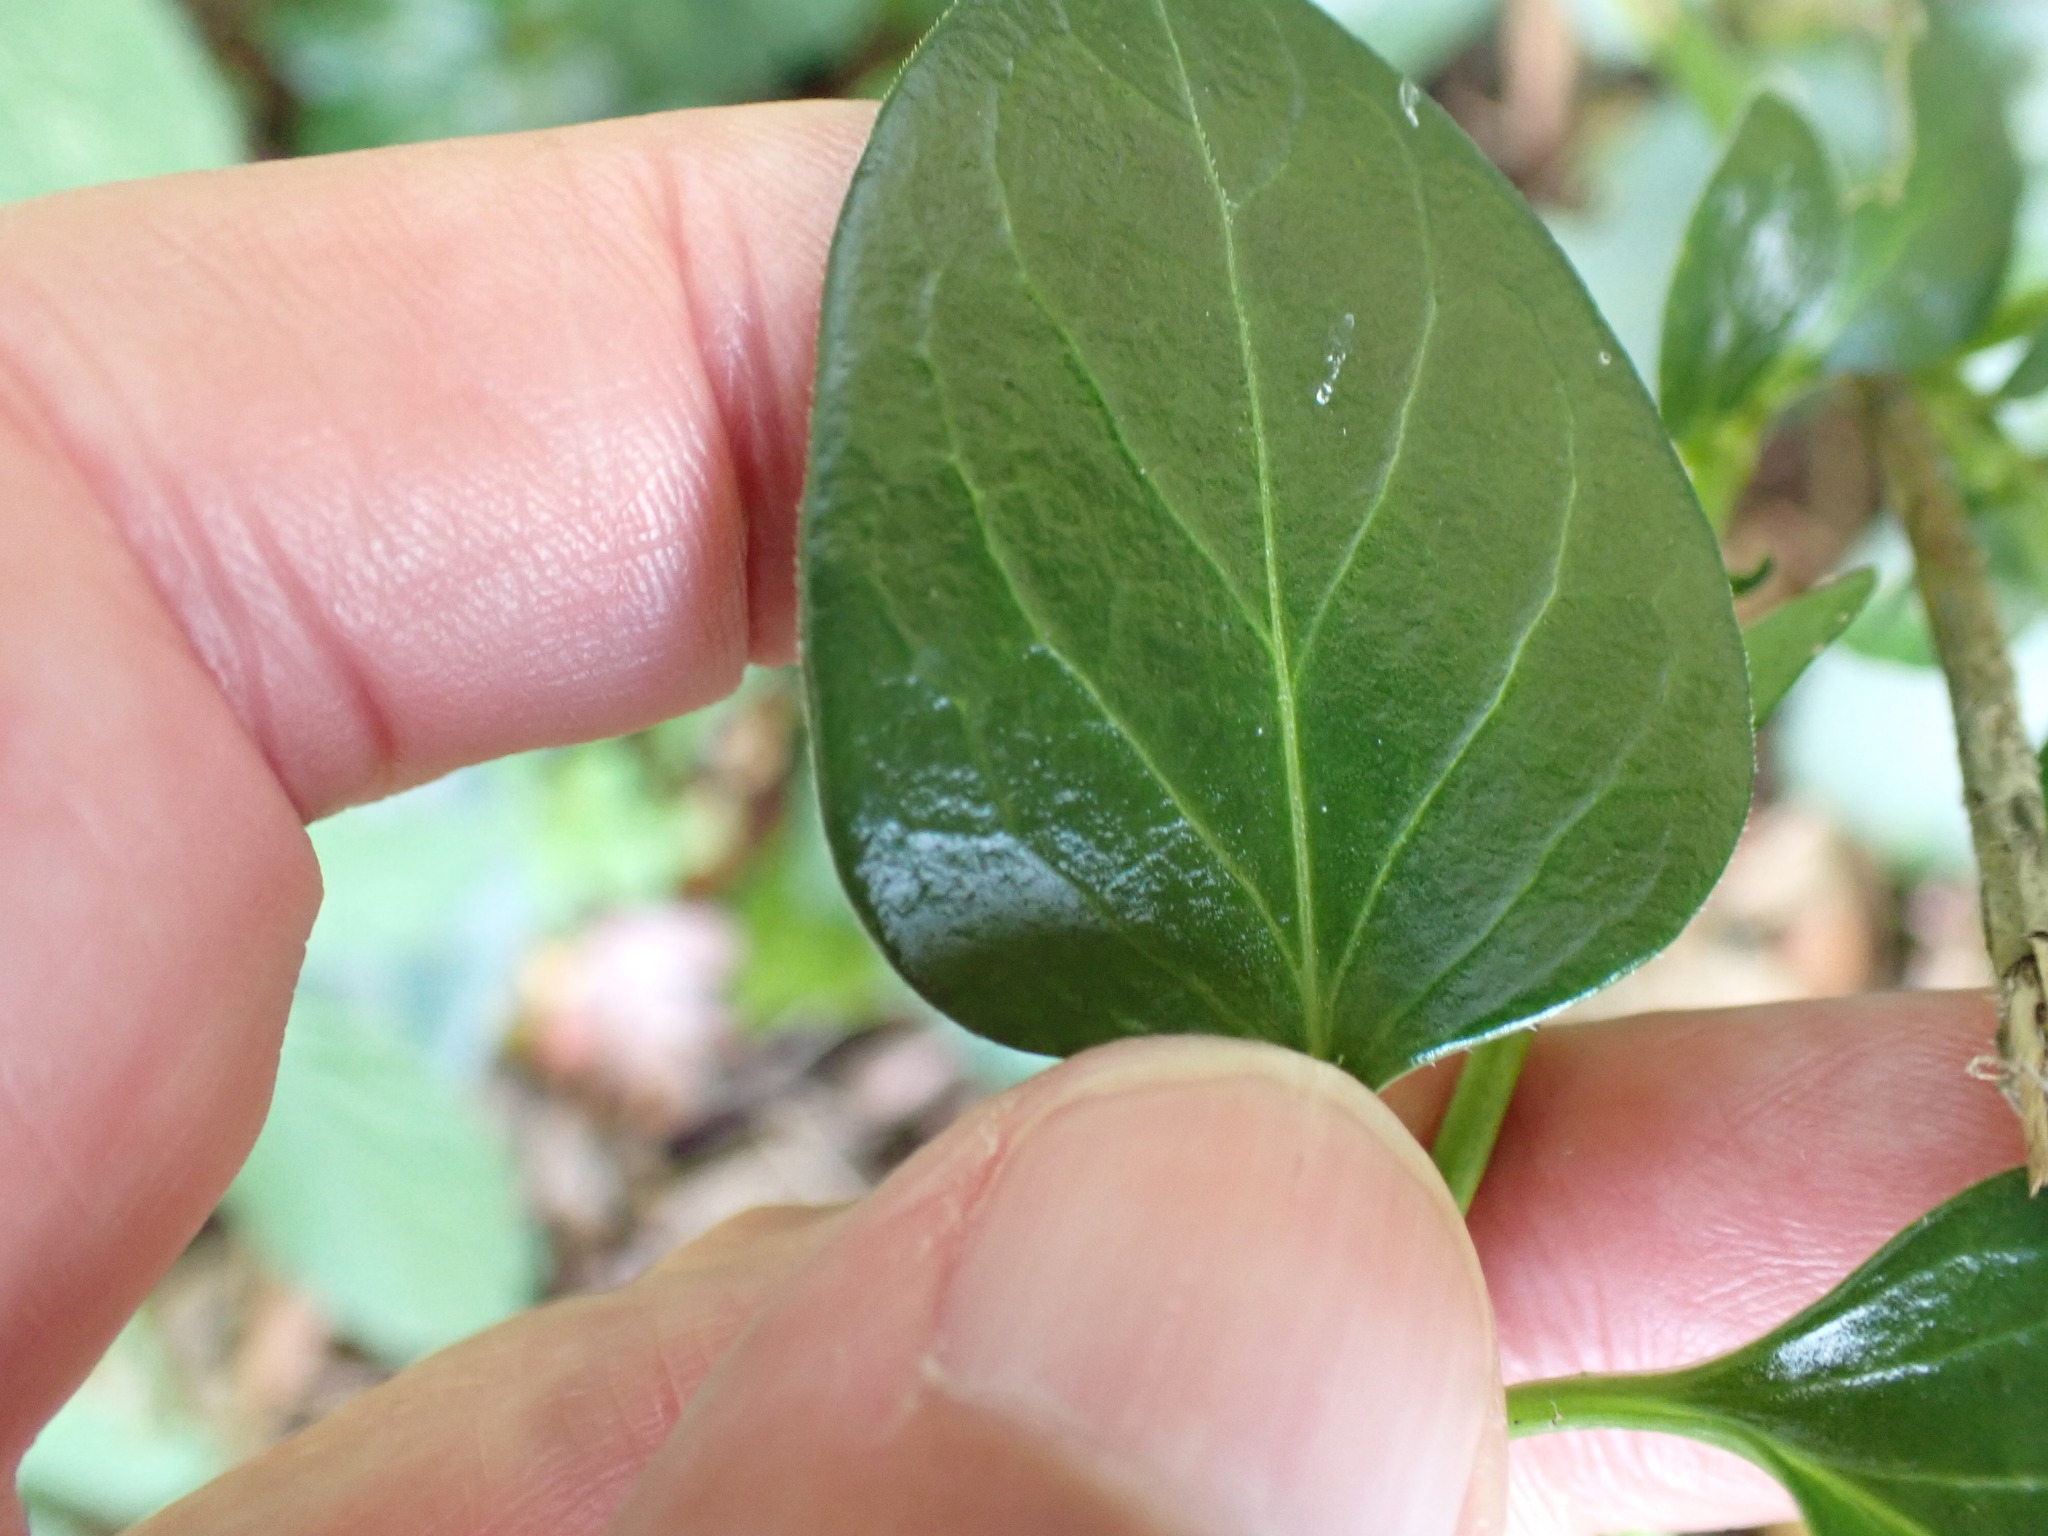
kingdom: Plantae
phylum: Tracheophyta
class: Magnoliopsida
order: Gentianales
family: Apocynaceae
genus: Vinca
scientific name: Vinca major
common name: Greater periwinkle
